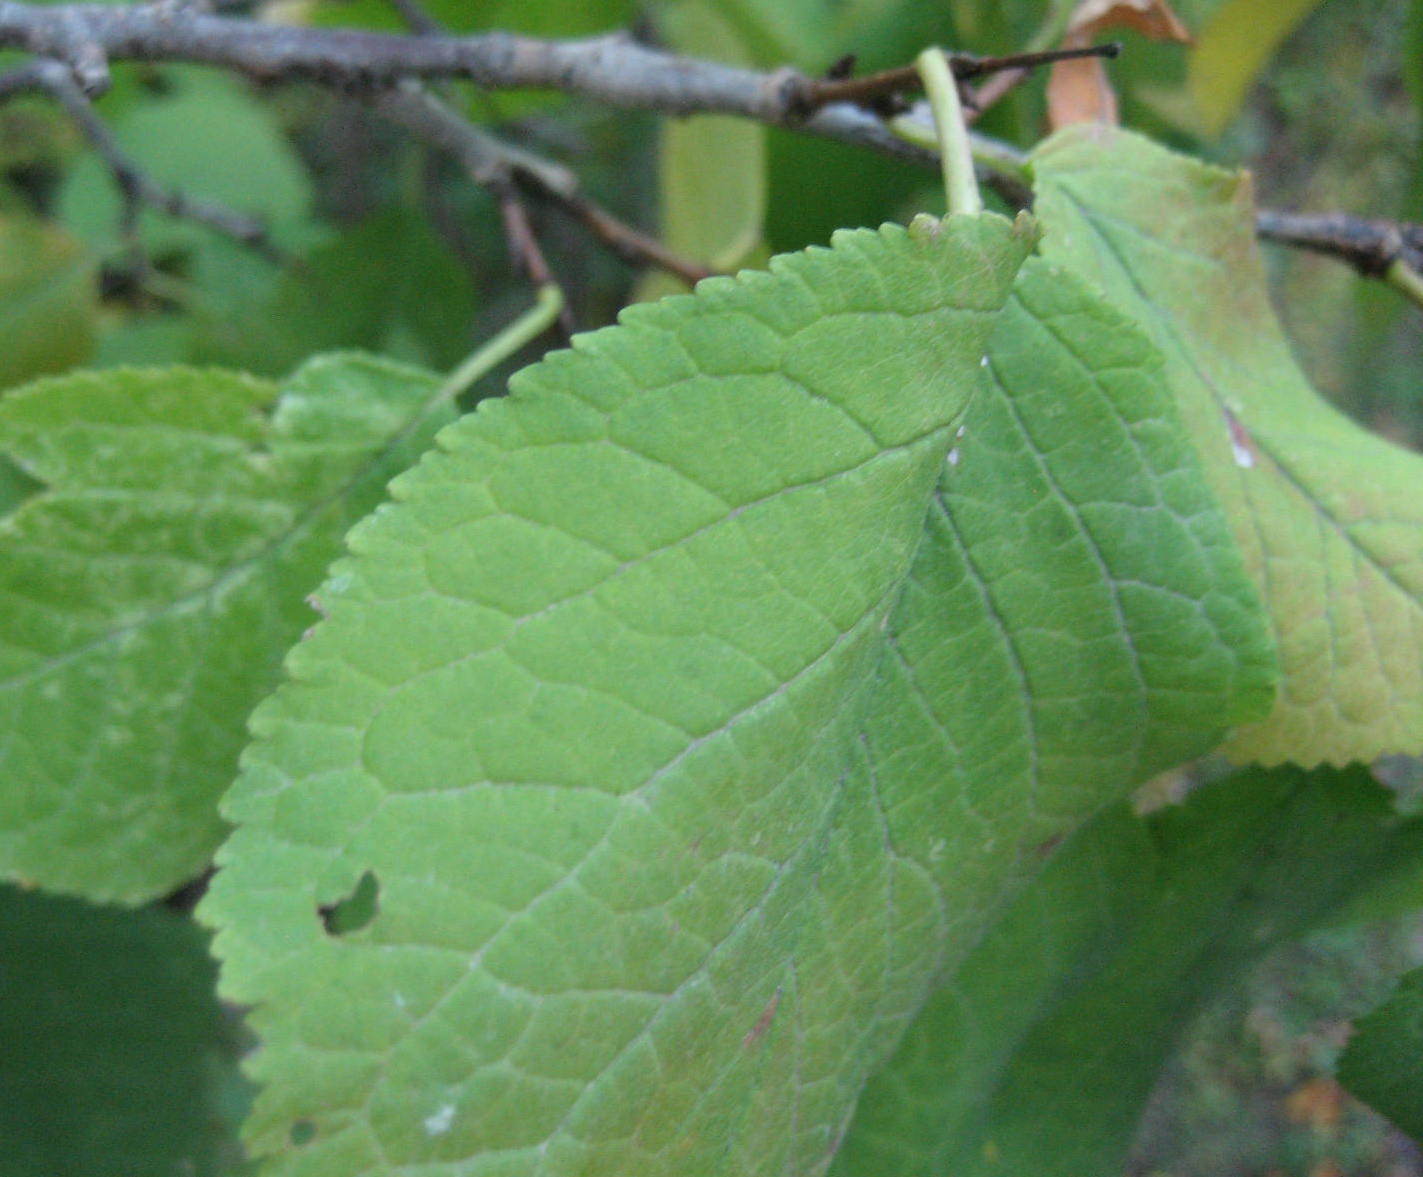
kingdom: Plantae
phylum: Tracheophyta
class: Magnoliopsida
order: Rosales
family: Rosaceae
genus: Prunus
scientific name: Prunus nigra
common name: Black plum
